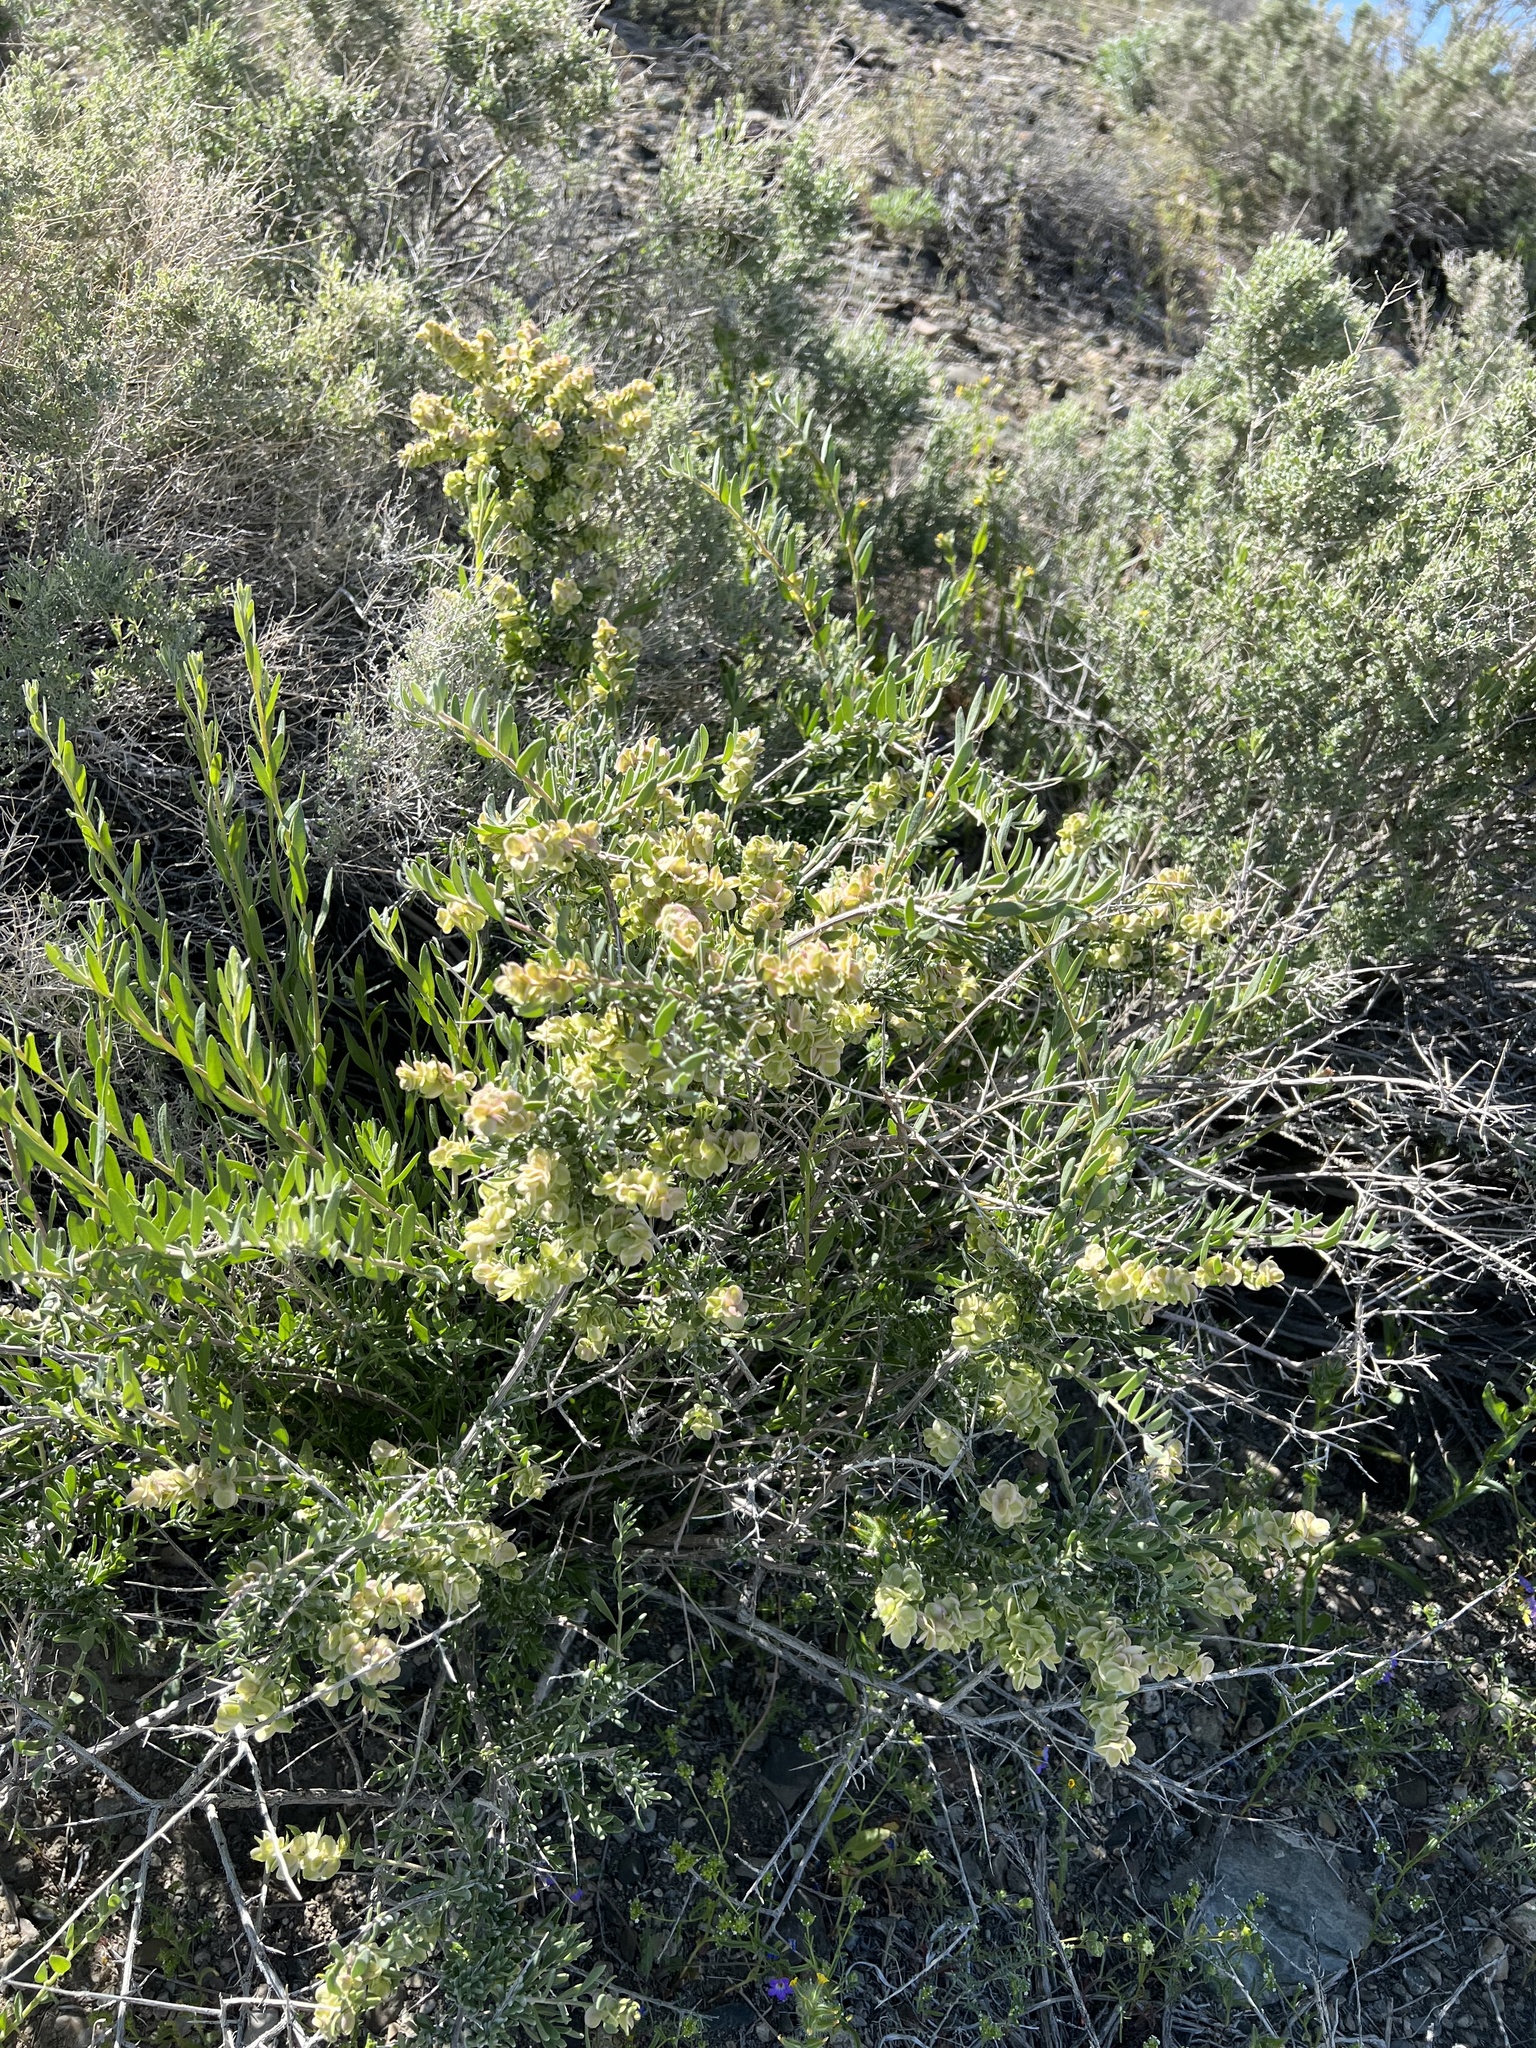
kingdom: Plantae
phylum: Tracheophyta
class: Magnoliopsida
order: Caryophyllales
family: Amaranthaceae
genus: Grayia
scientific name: Grayia spinosa
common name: Spiny hopsage
